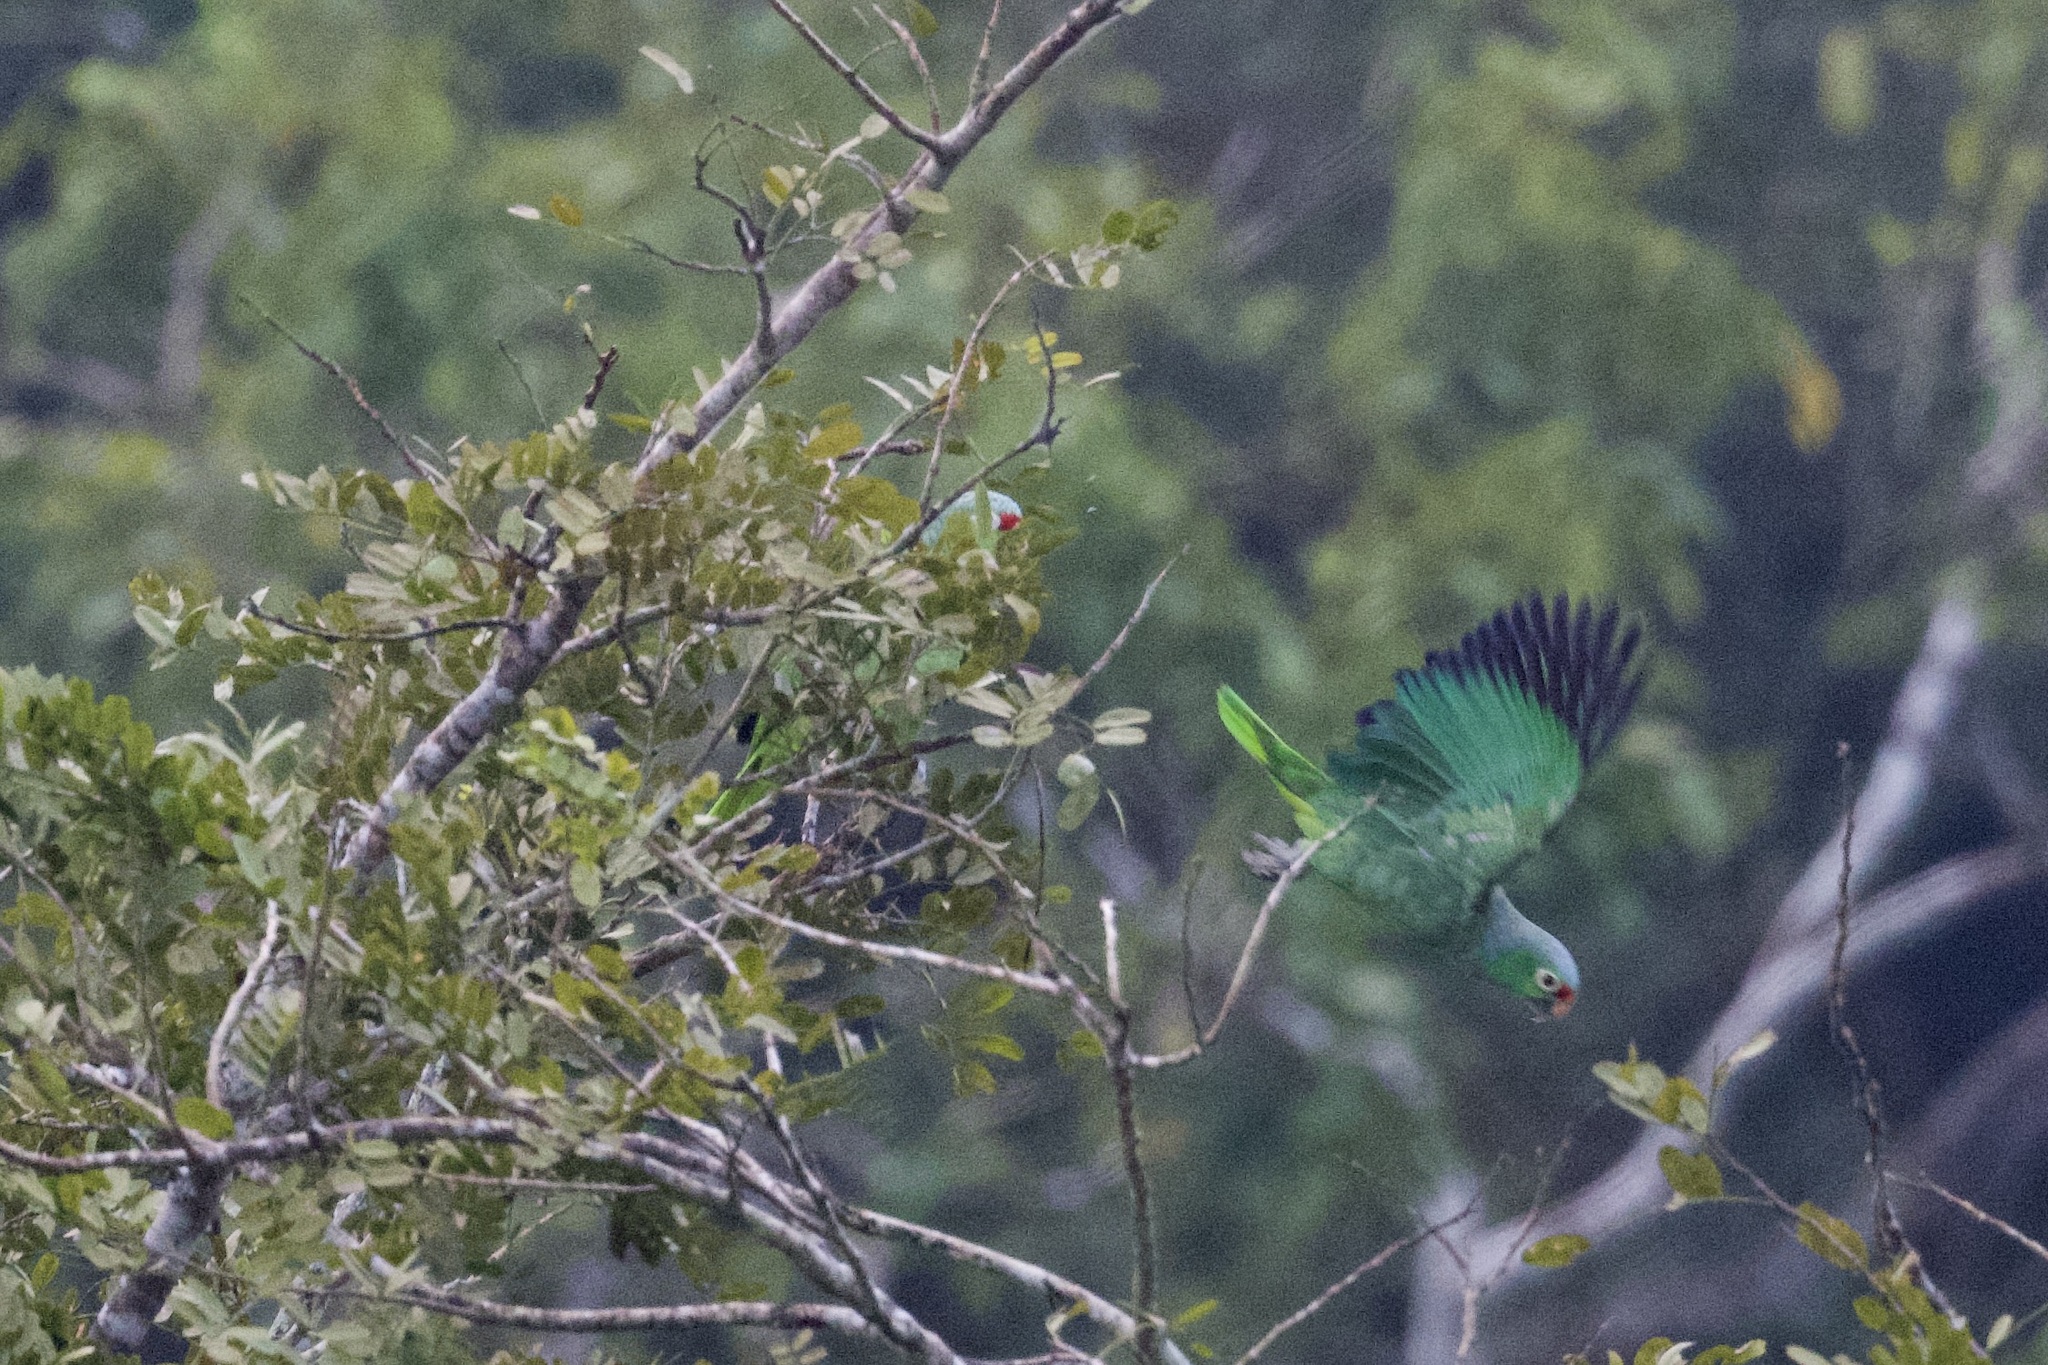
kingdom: Animalia
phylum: Chordata
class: Aves
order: Psittaciformes
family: Psittacidae
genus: Amazona
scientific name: Amazona autumnalis
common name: Red-lored amazon
